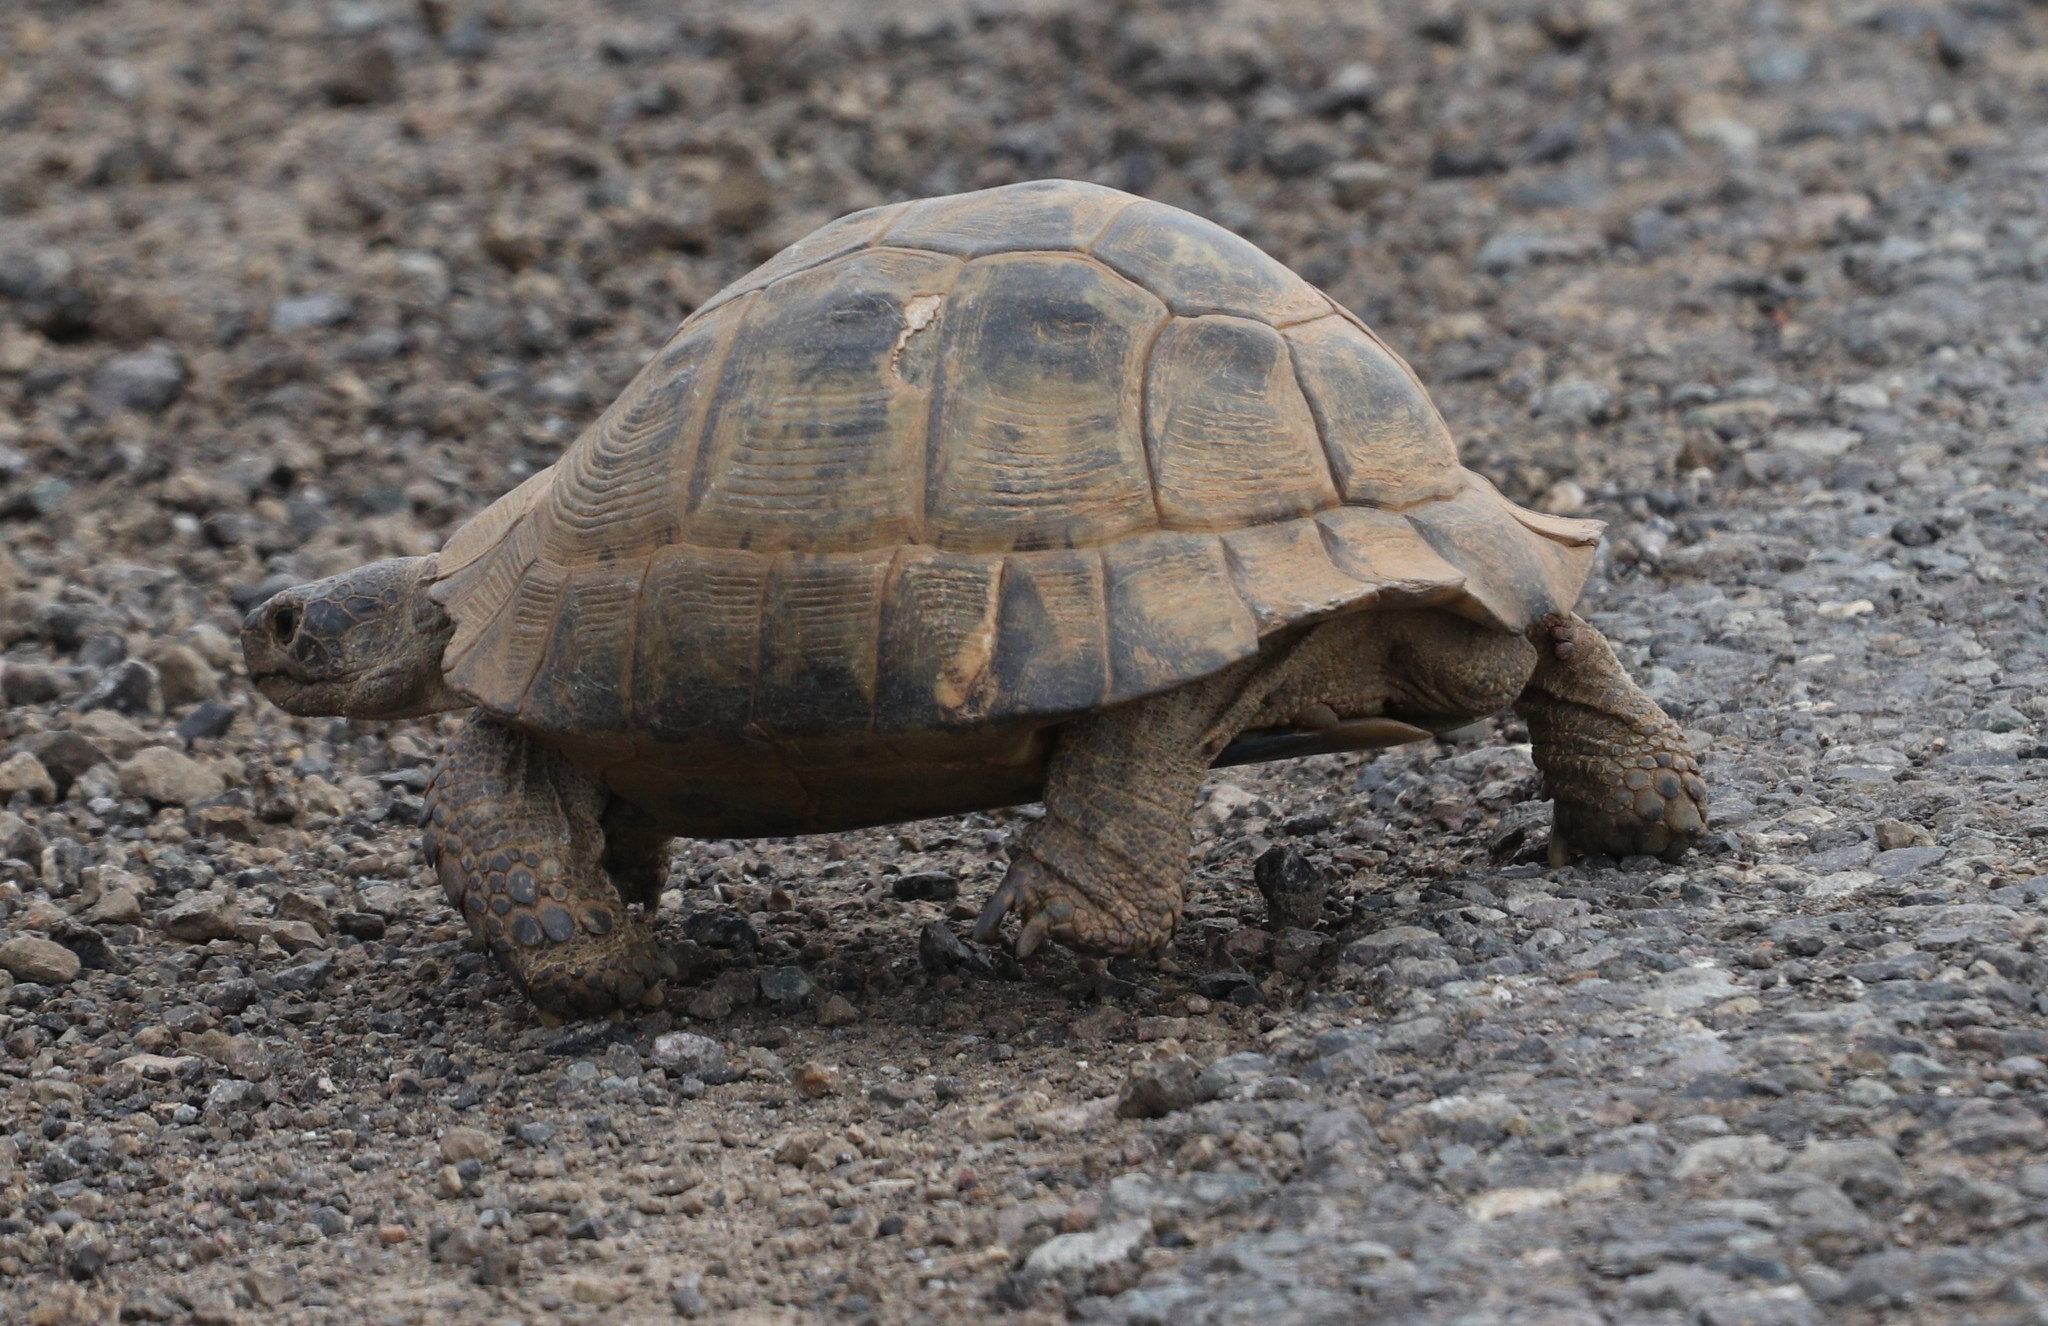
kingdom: Animalia
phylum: Chordata
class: Testudines
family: Testudinidae
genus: Testudo
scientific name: Testudo graeca
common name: Common tortoise
